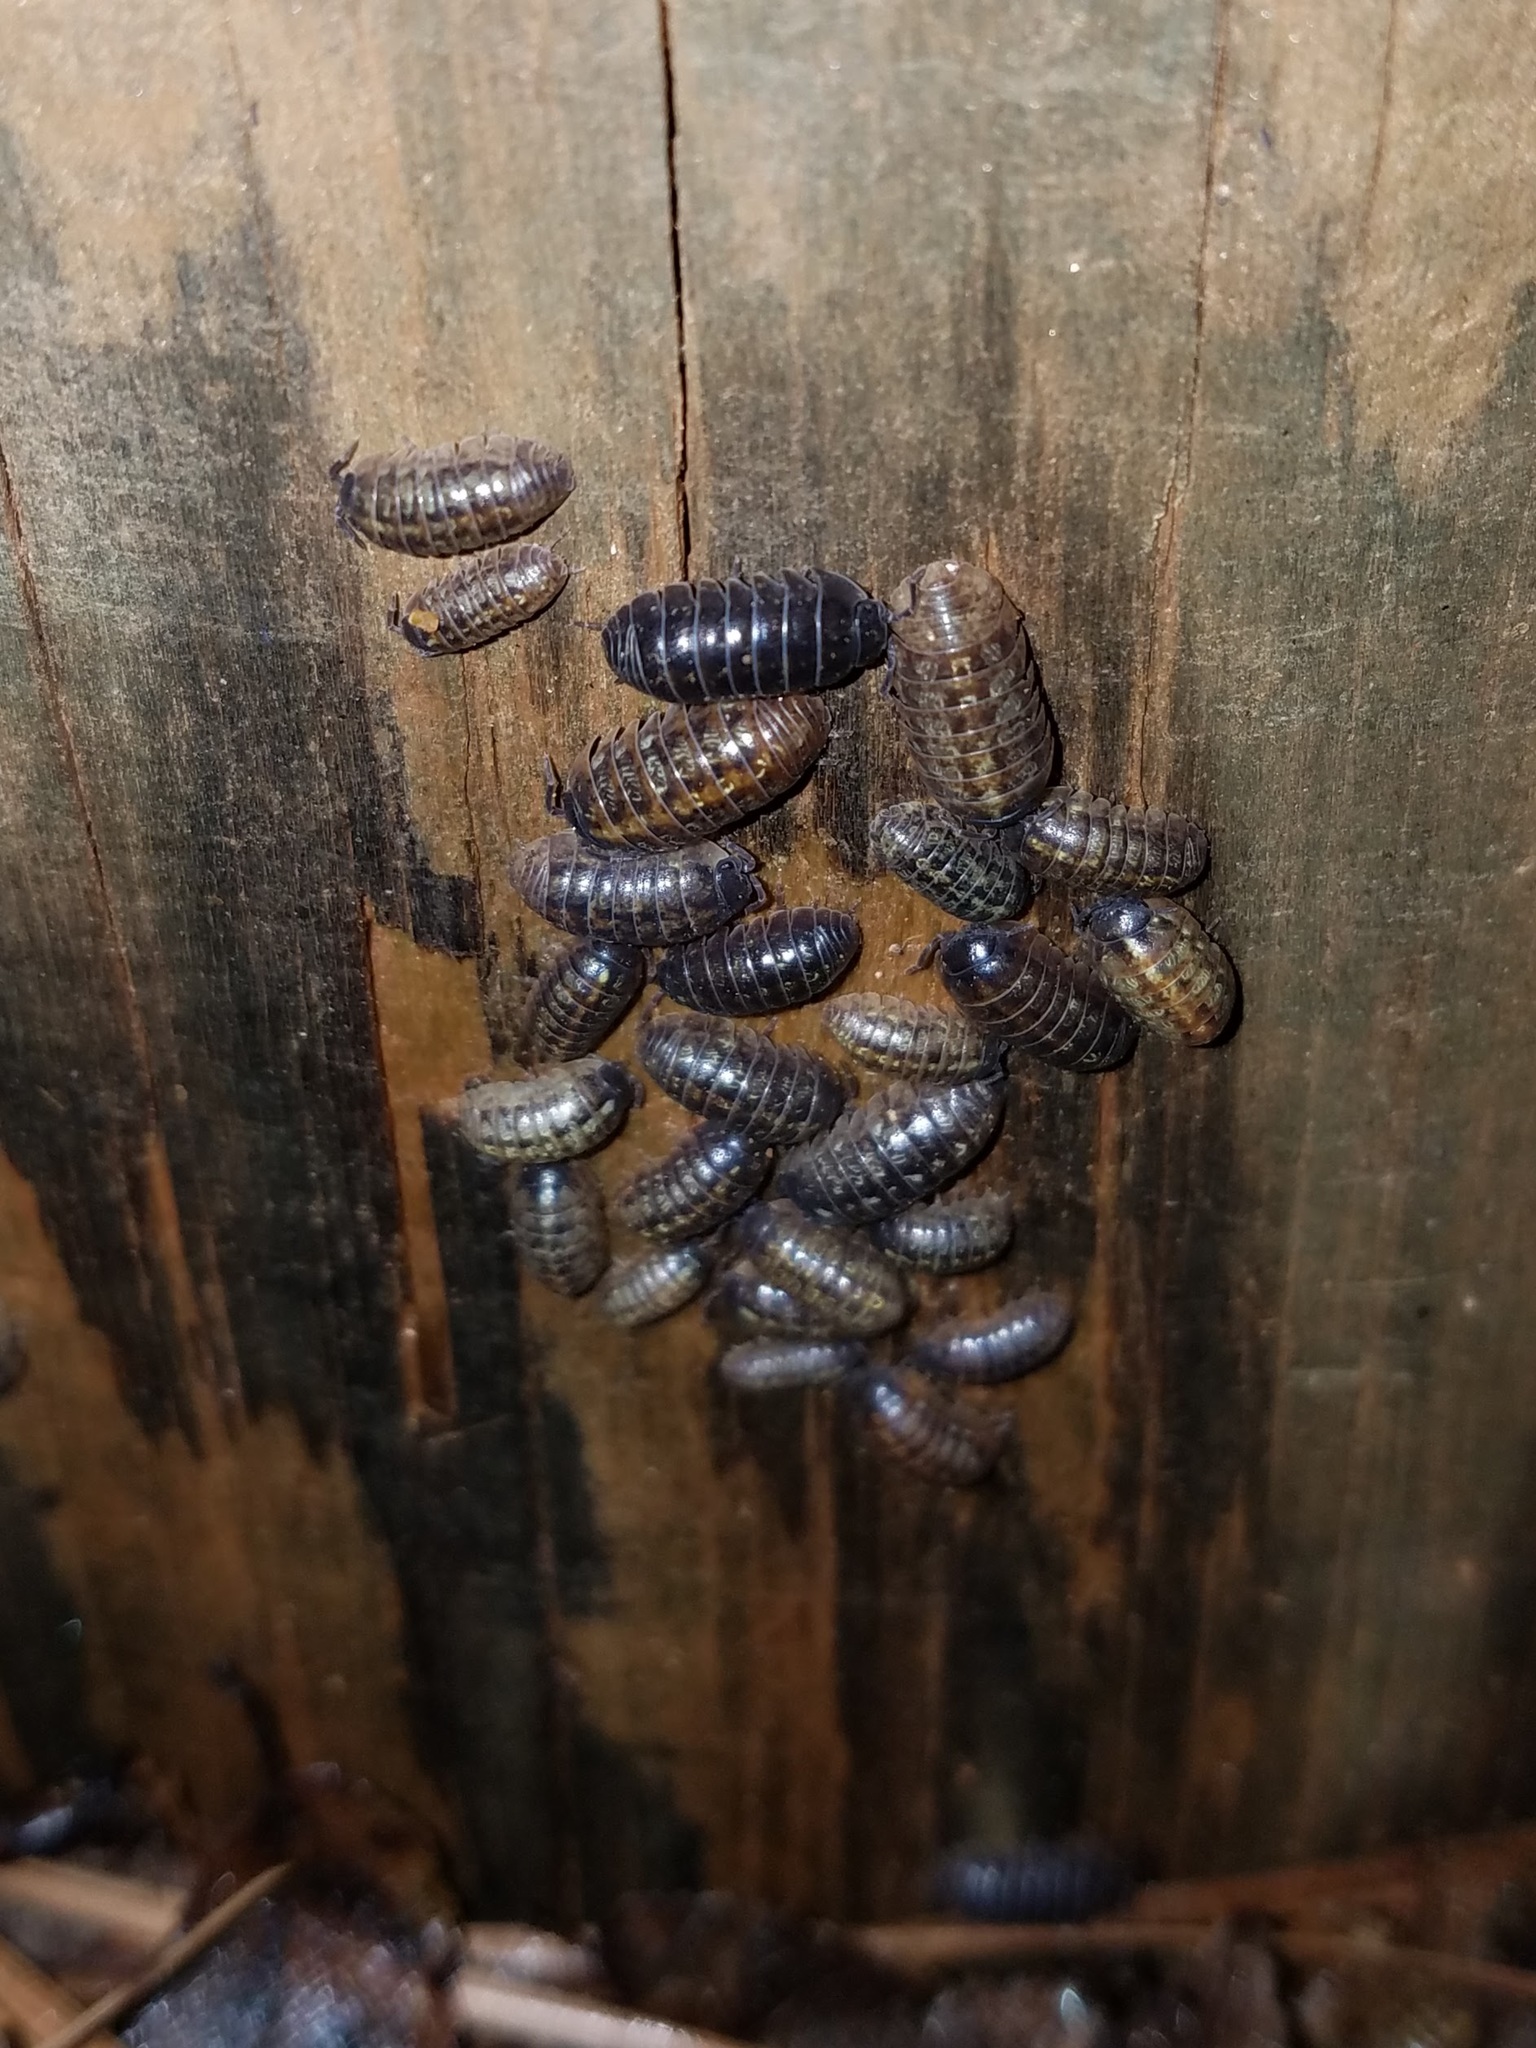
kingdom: Animalia
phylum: Arthropoda
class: Malacostraca
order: Isopoda
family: Armadillidiidae
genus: Armadillidium
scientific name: Armadillidium vulgare
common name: Common pill woodlouse
